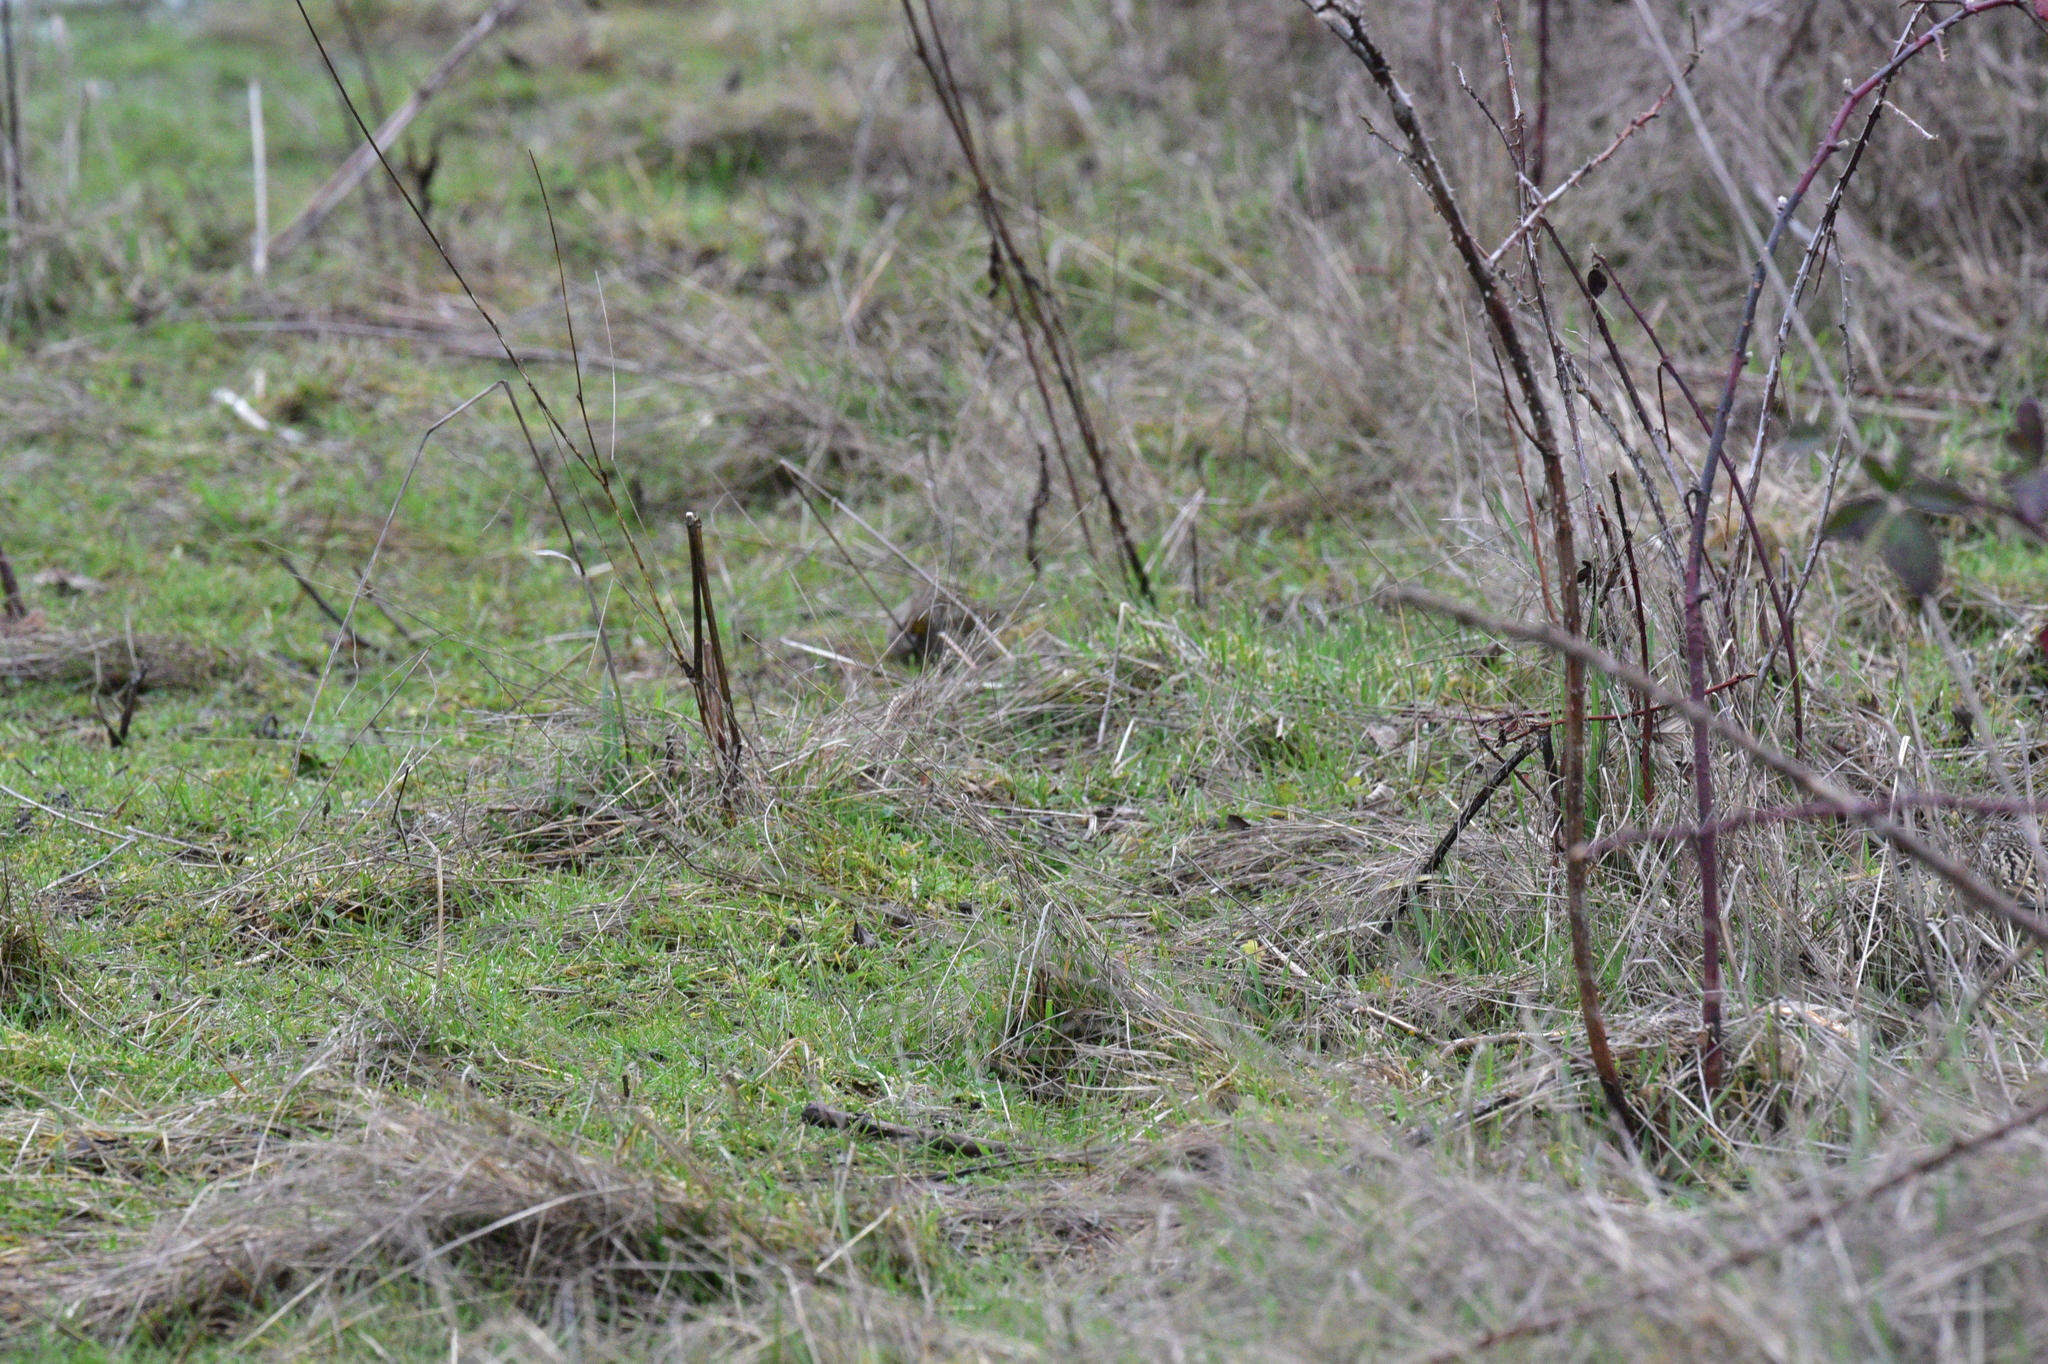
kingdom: Animalia
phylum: Chordata
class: Aves
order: Passeriformes
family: Passerellidae
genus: Zonotrichia
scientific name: Zonotrichia atricapilla
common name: Golden-crowned sparrow
